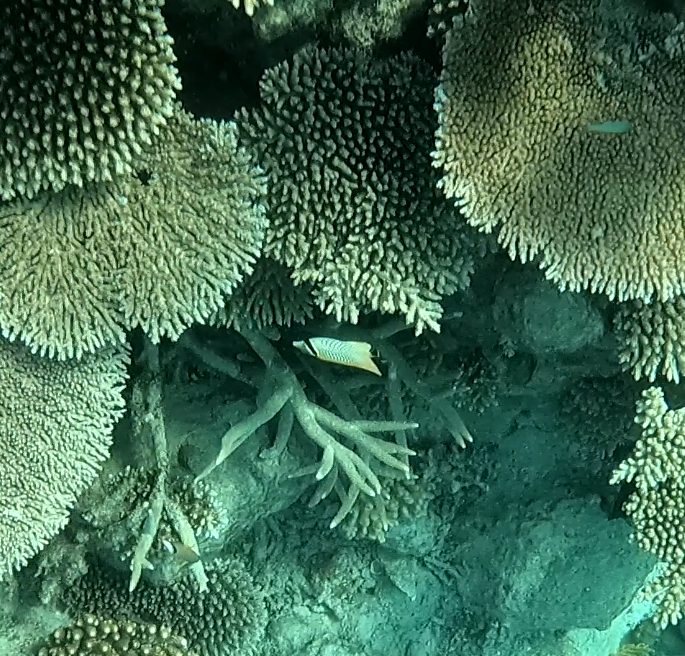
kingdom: Animalia
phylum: Chordata
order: Perciformes
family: Chaetodontidae
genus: Chaetodon
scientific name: Chaetodon trifascialis
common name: Chevroned butterflyfish
